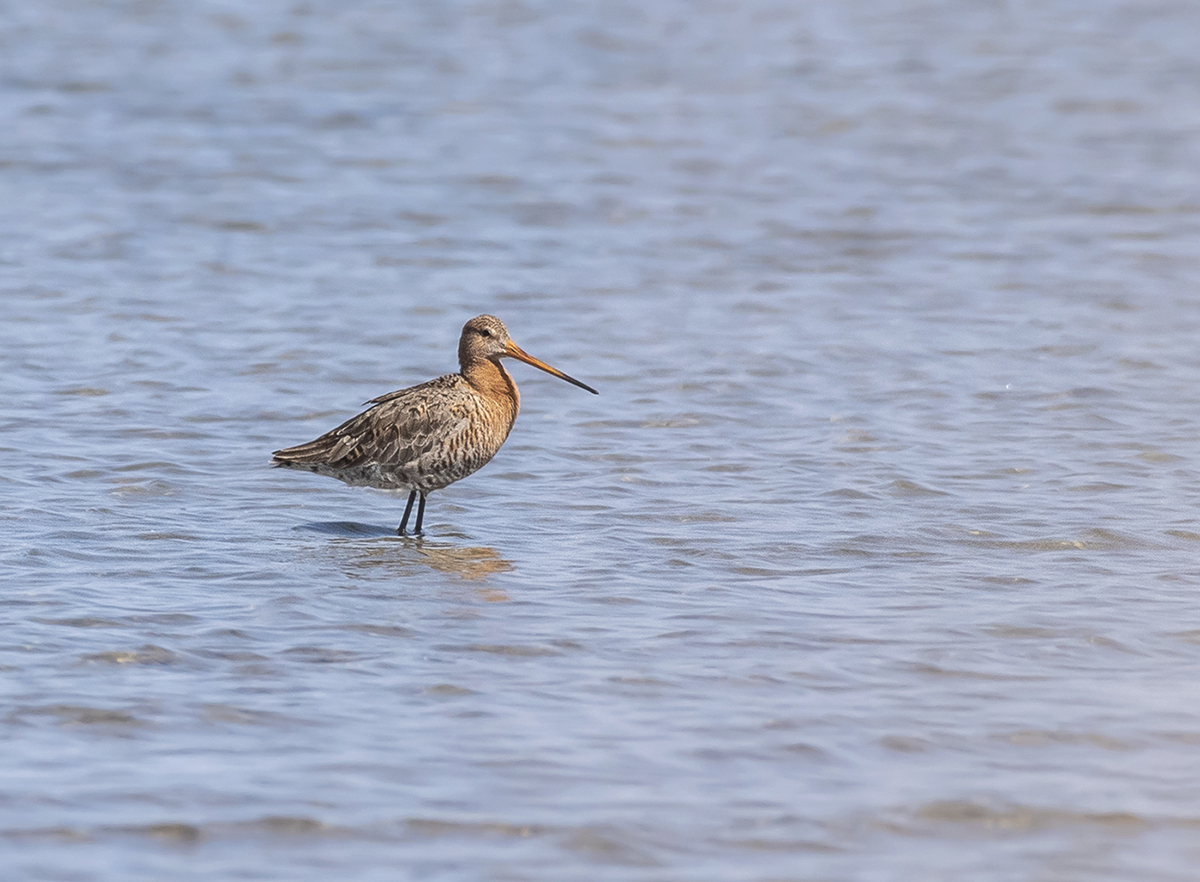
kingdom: Animalia
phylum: Chordata
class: Aves
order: Charadriiformes
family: Scolopacidae
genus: Limosa
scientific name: Limosa limosa
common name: Black-tailed godwit
